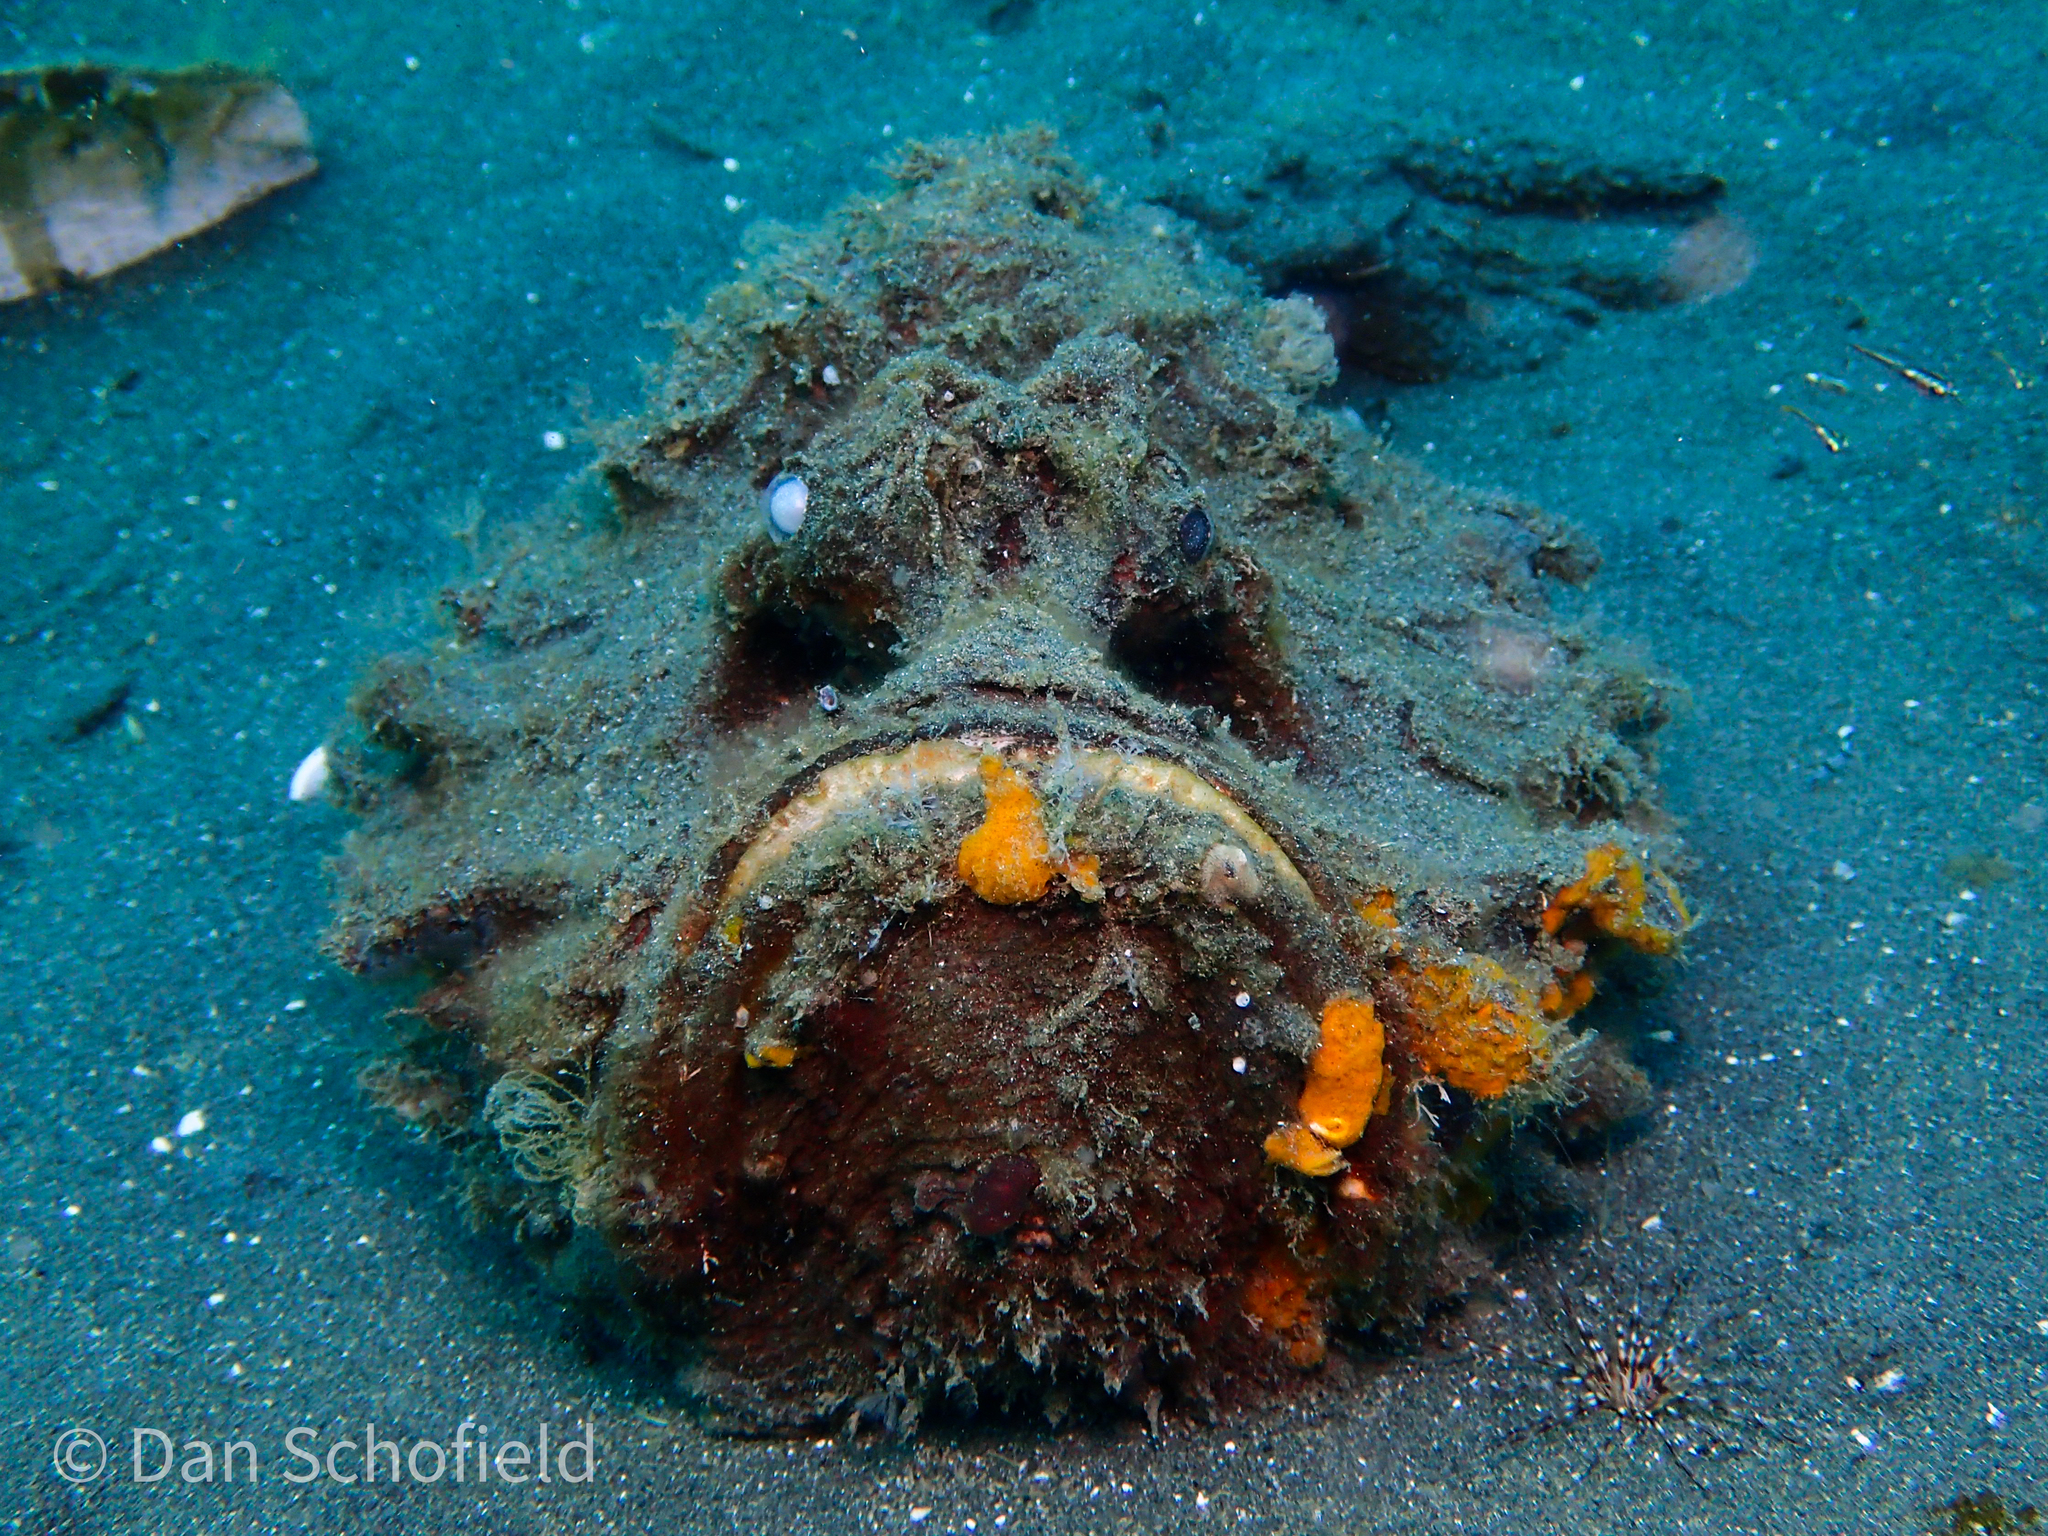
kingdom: Animalia
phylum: Chordata
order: Scorpaeniformes
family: Synanceiidae
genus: Synanceia
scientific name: Synanceia horrida
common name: Estuarine stonefish
